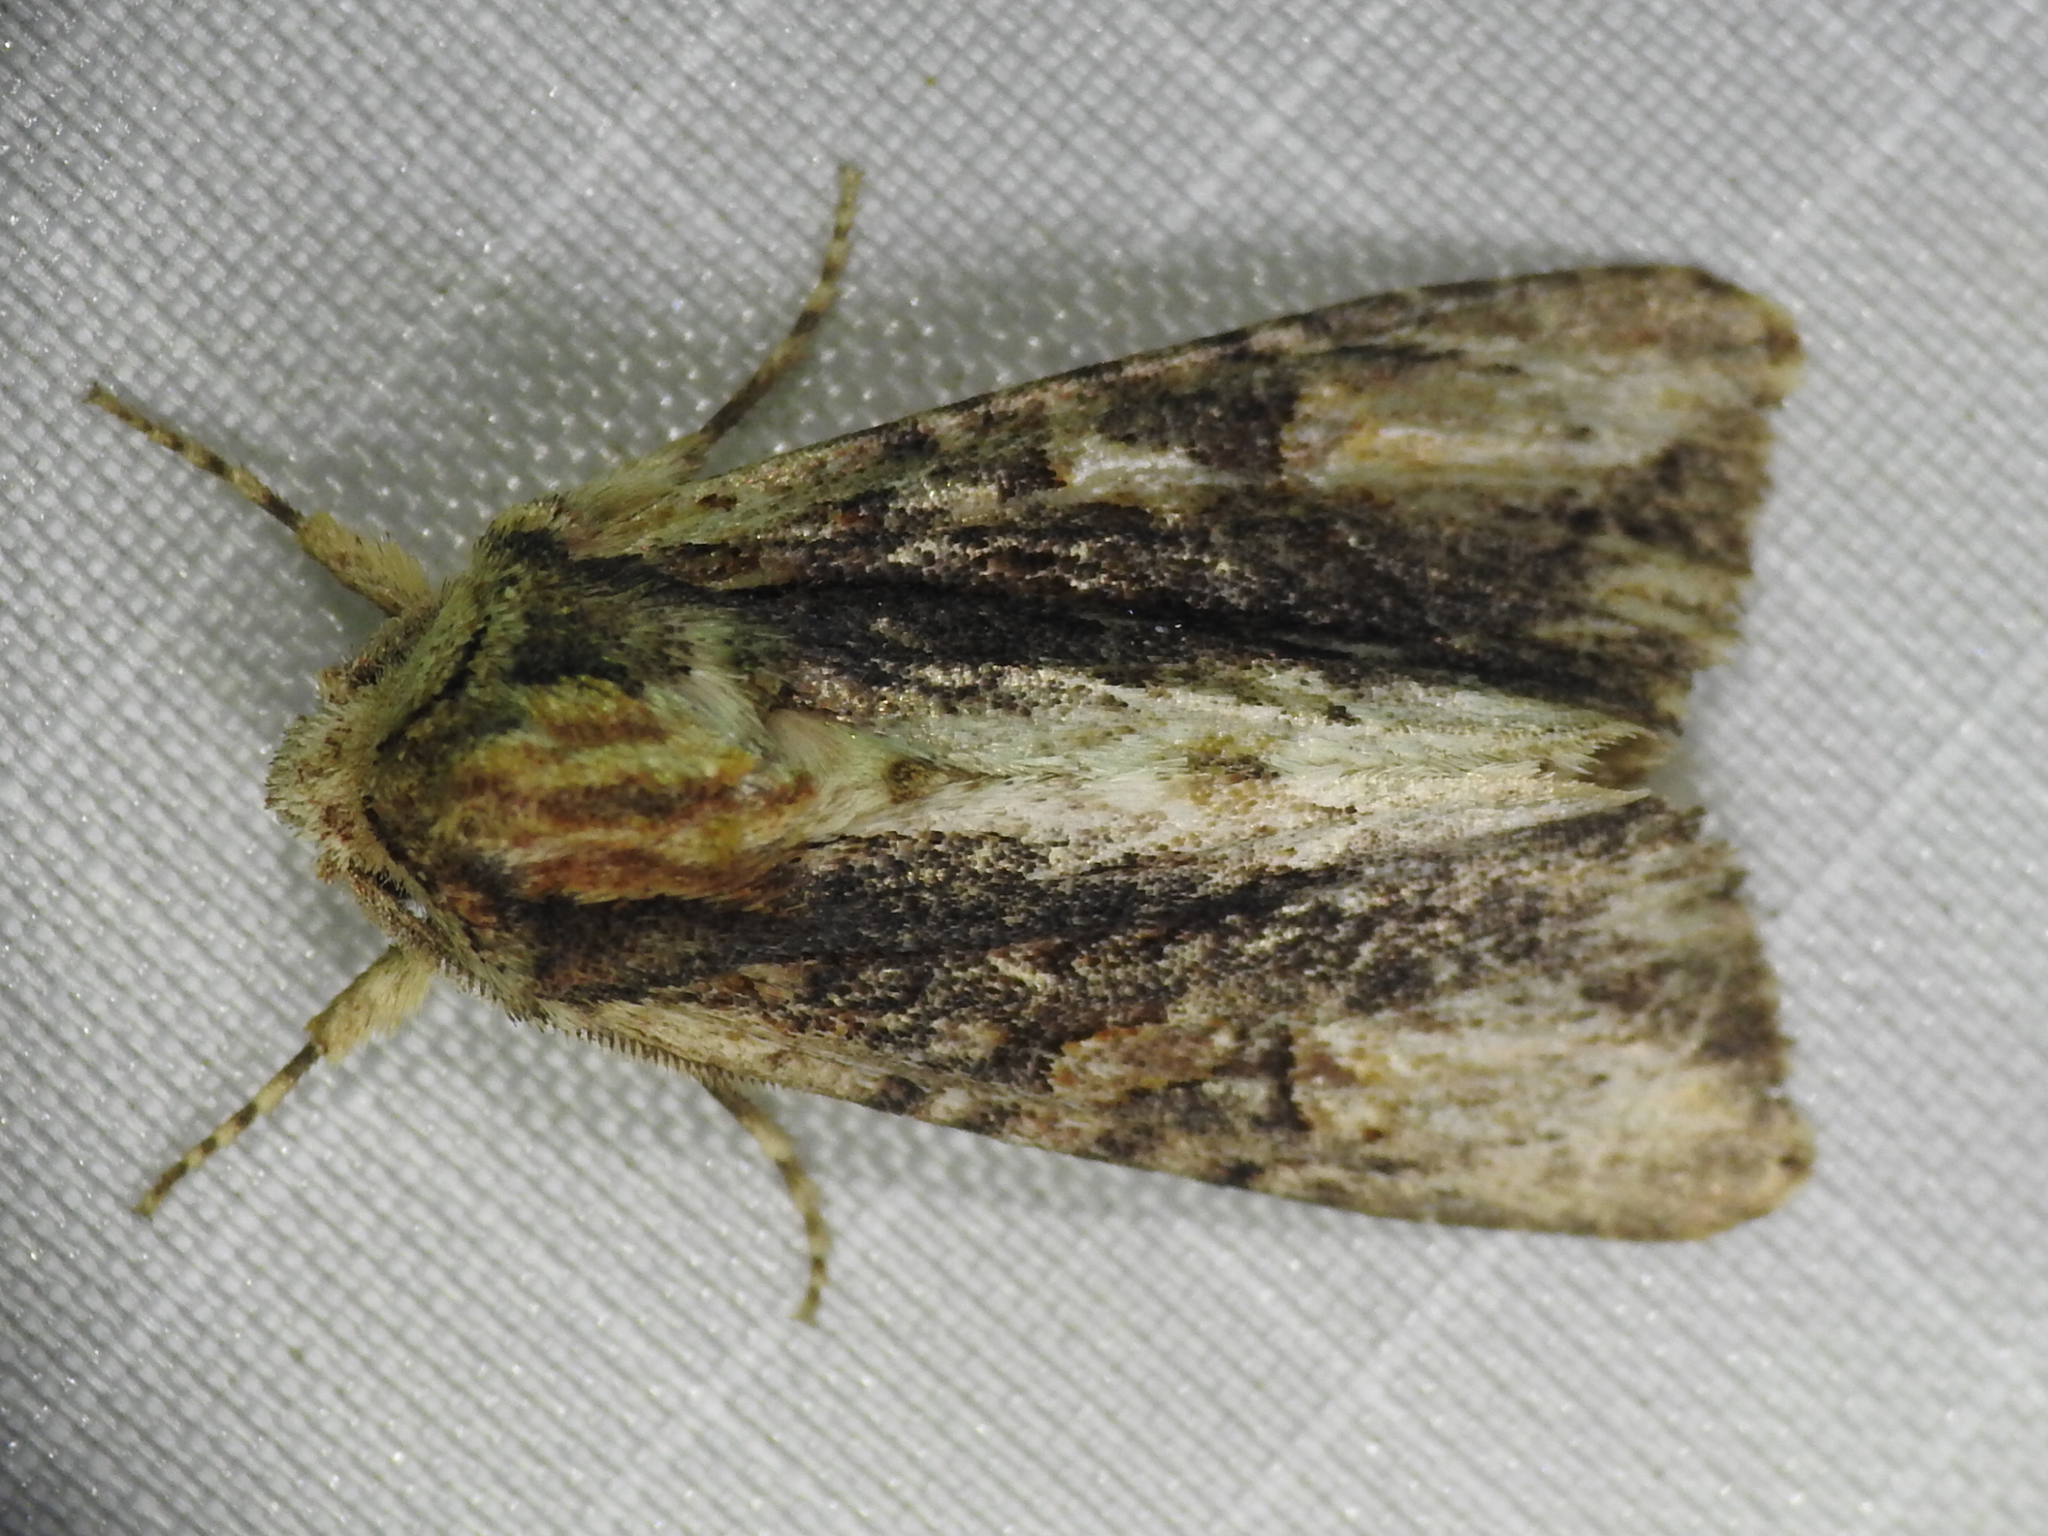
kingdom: Animalia
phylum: Arthropoda
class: Insecta
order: Lepidoptera
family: Noctuidae
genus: Achatia
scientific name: Achatia mucens
